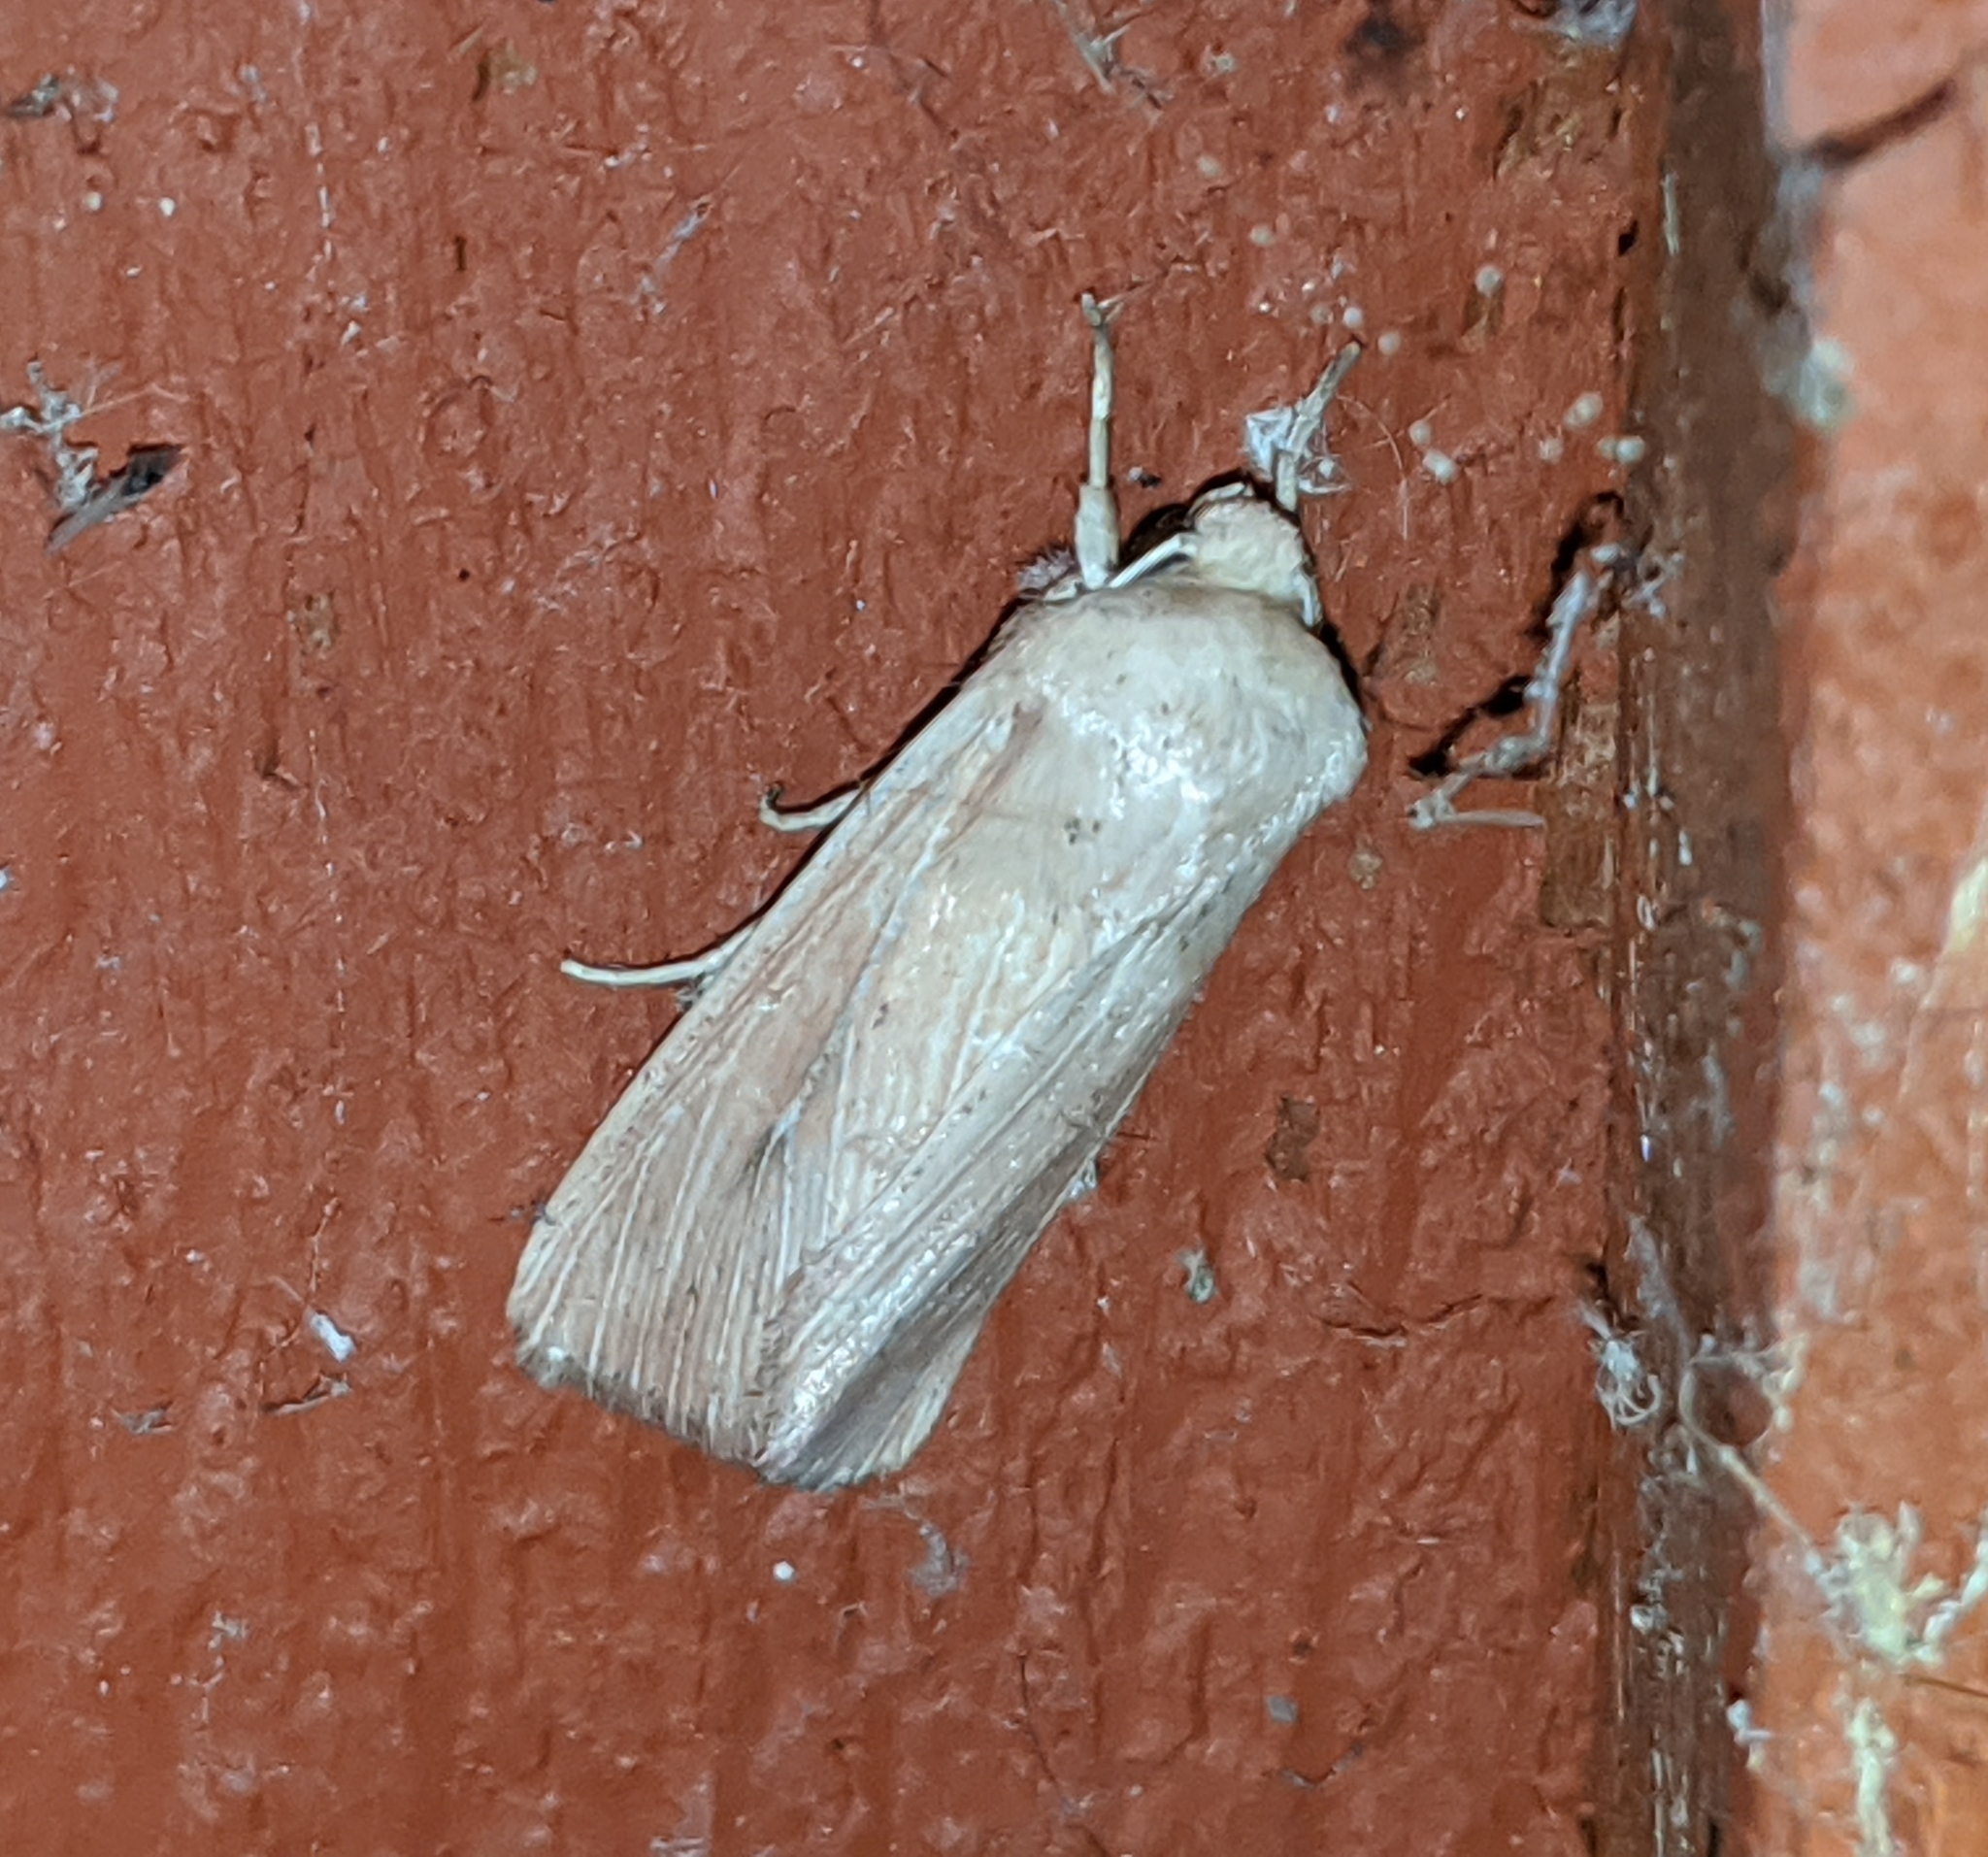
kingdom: Animalia
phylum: Arthropoda
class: Insecta
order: Lepidoptera
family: Noctuidae
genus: Mythimna
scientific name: Mythimna oxygala
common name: Lesser wainscot
